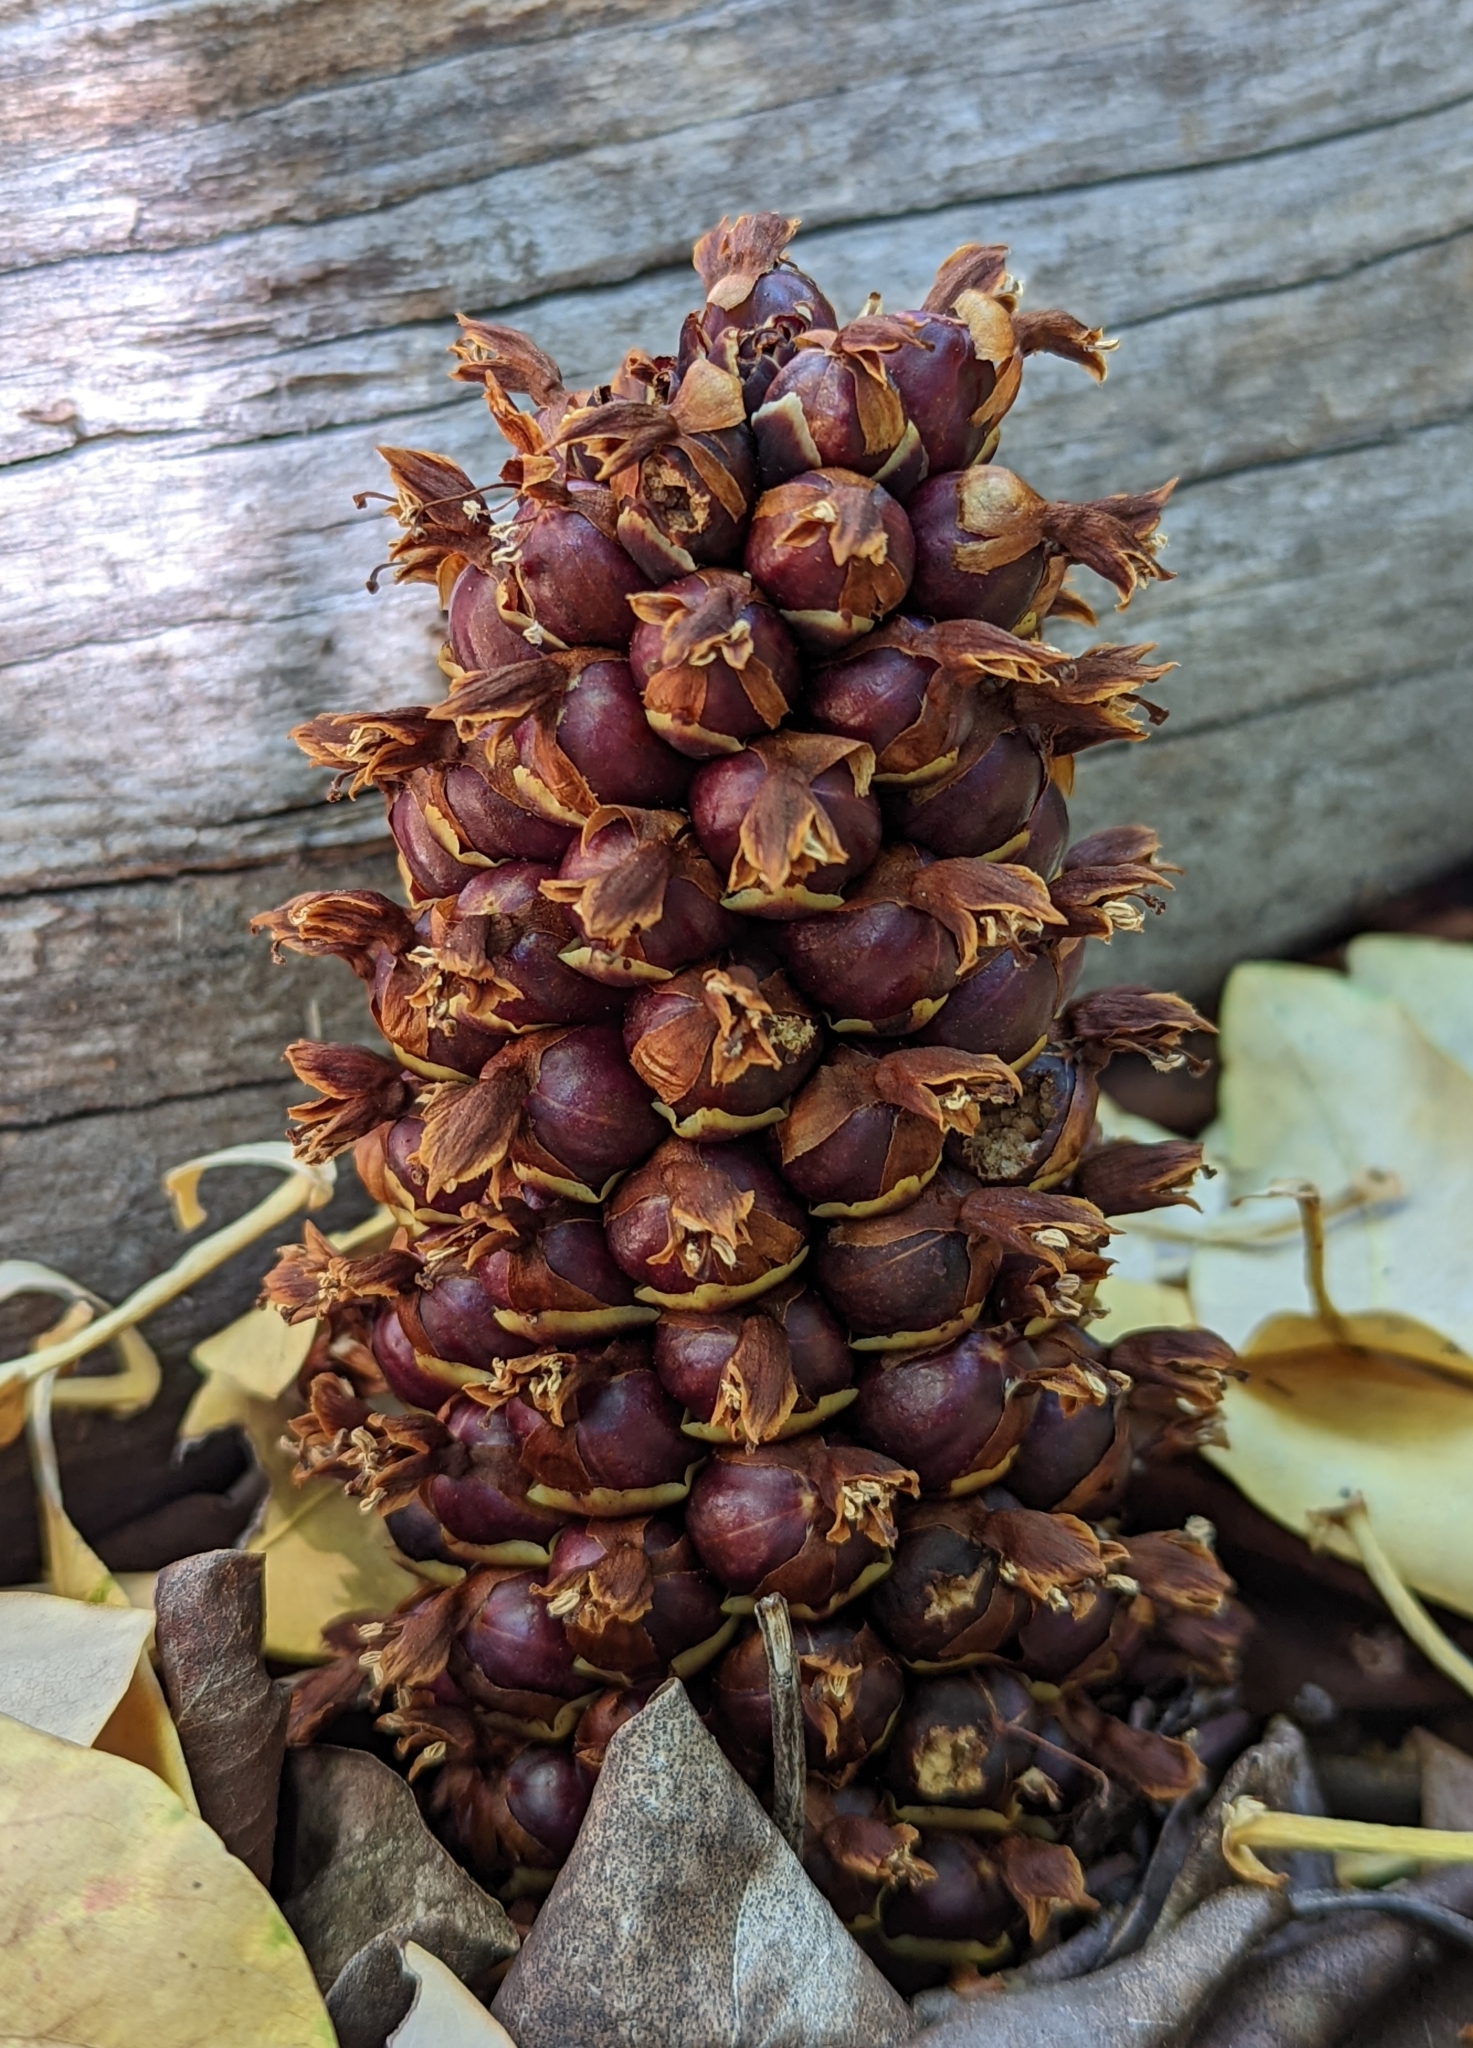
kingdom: Plantae
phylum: Tracheophyta
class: Magnoliopsida
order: Lamiales
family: Orobanchaceae
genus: Kopsiopsis
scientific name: Kopsiopsis strobilacea
